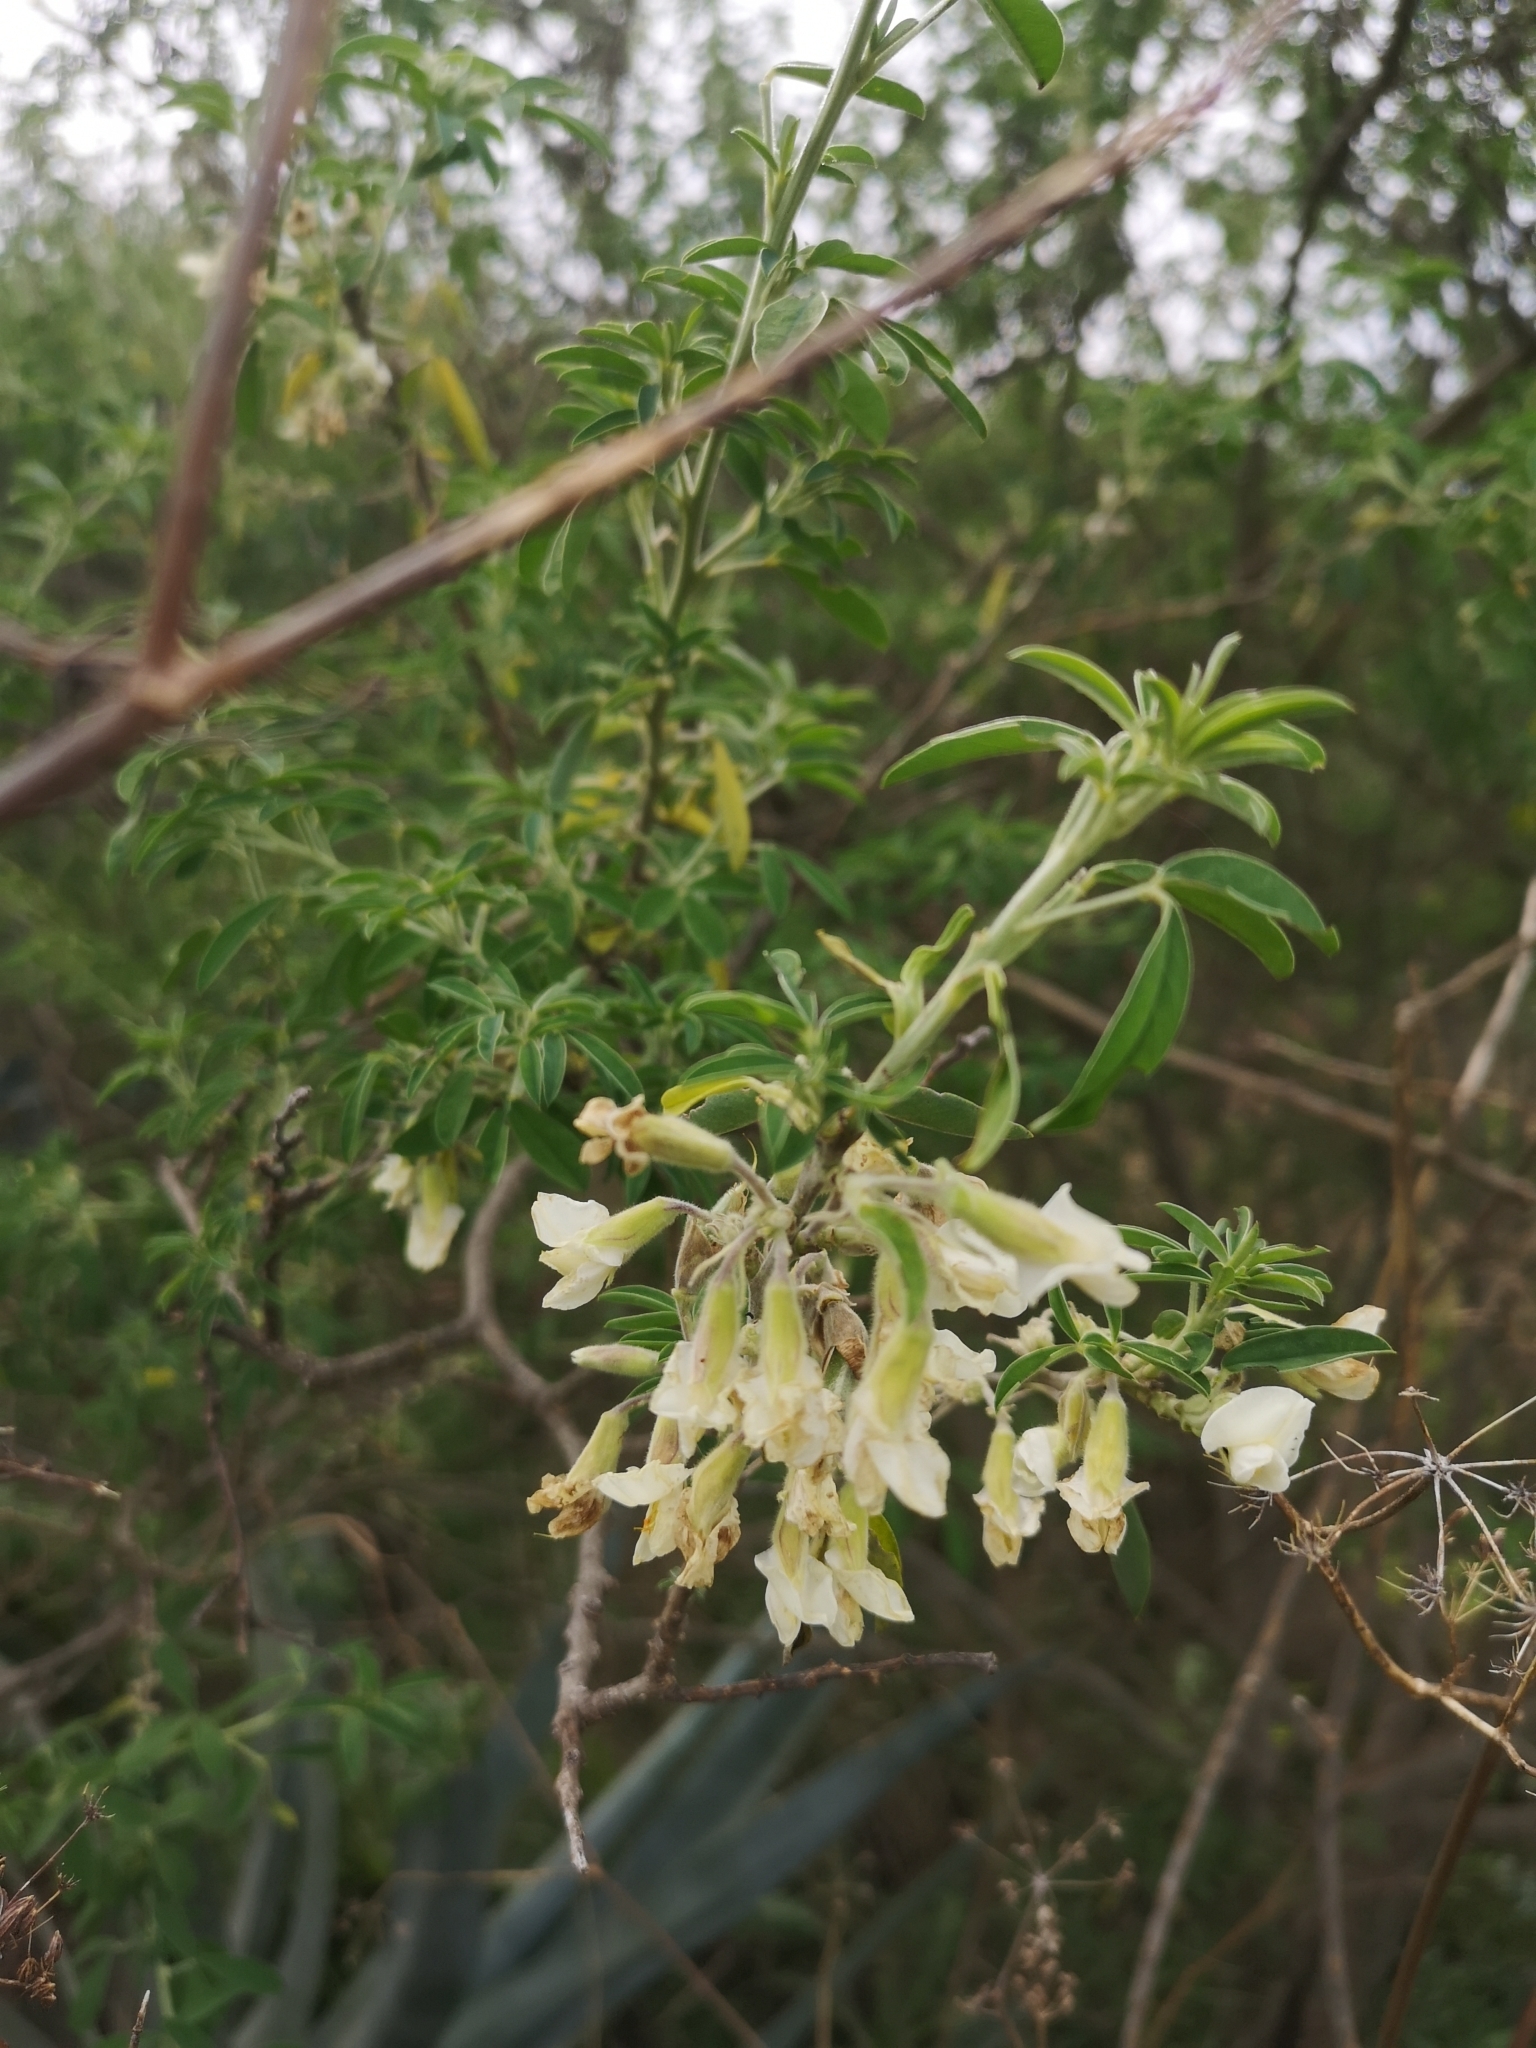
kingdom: Plantae
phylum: Tracheophyta
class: Magnoliopsida
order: Fabales
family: Fabaceae
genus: Chamaecytisus
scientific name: Chamaecytisus prolifer
